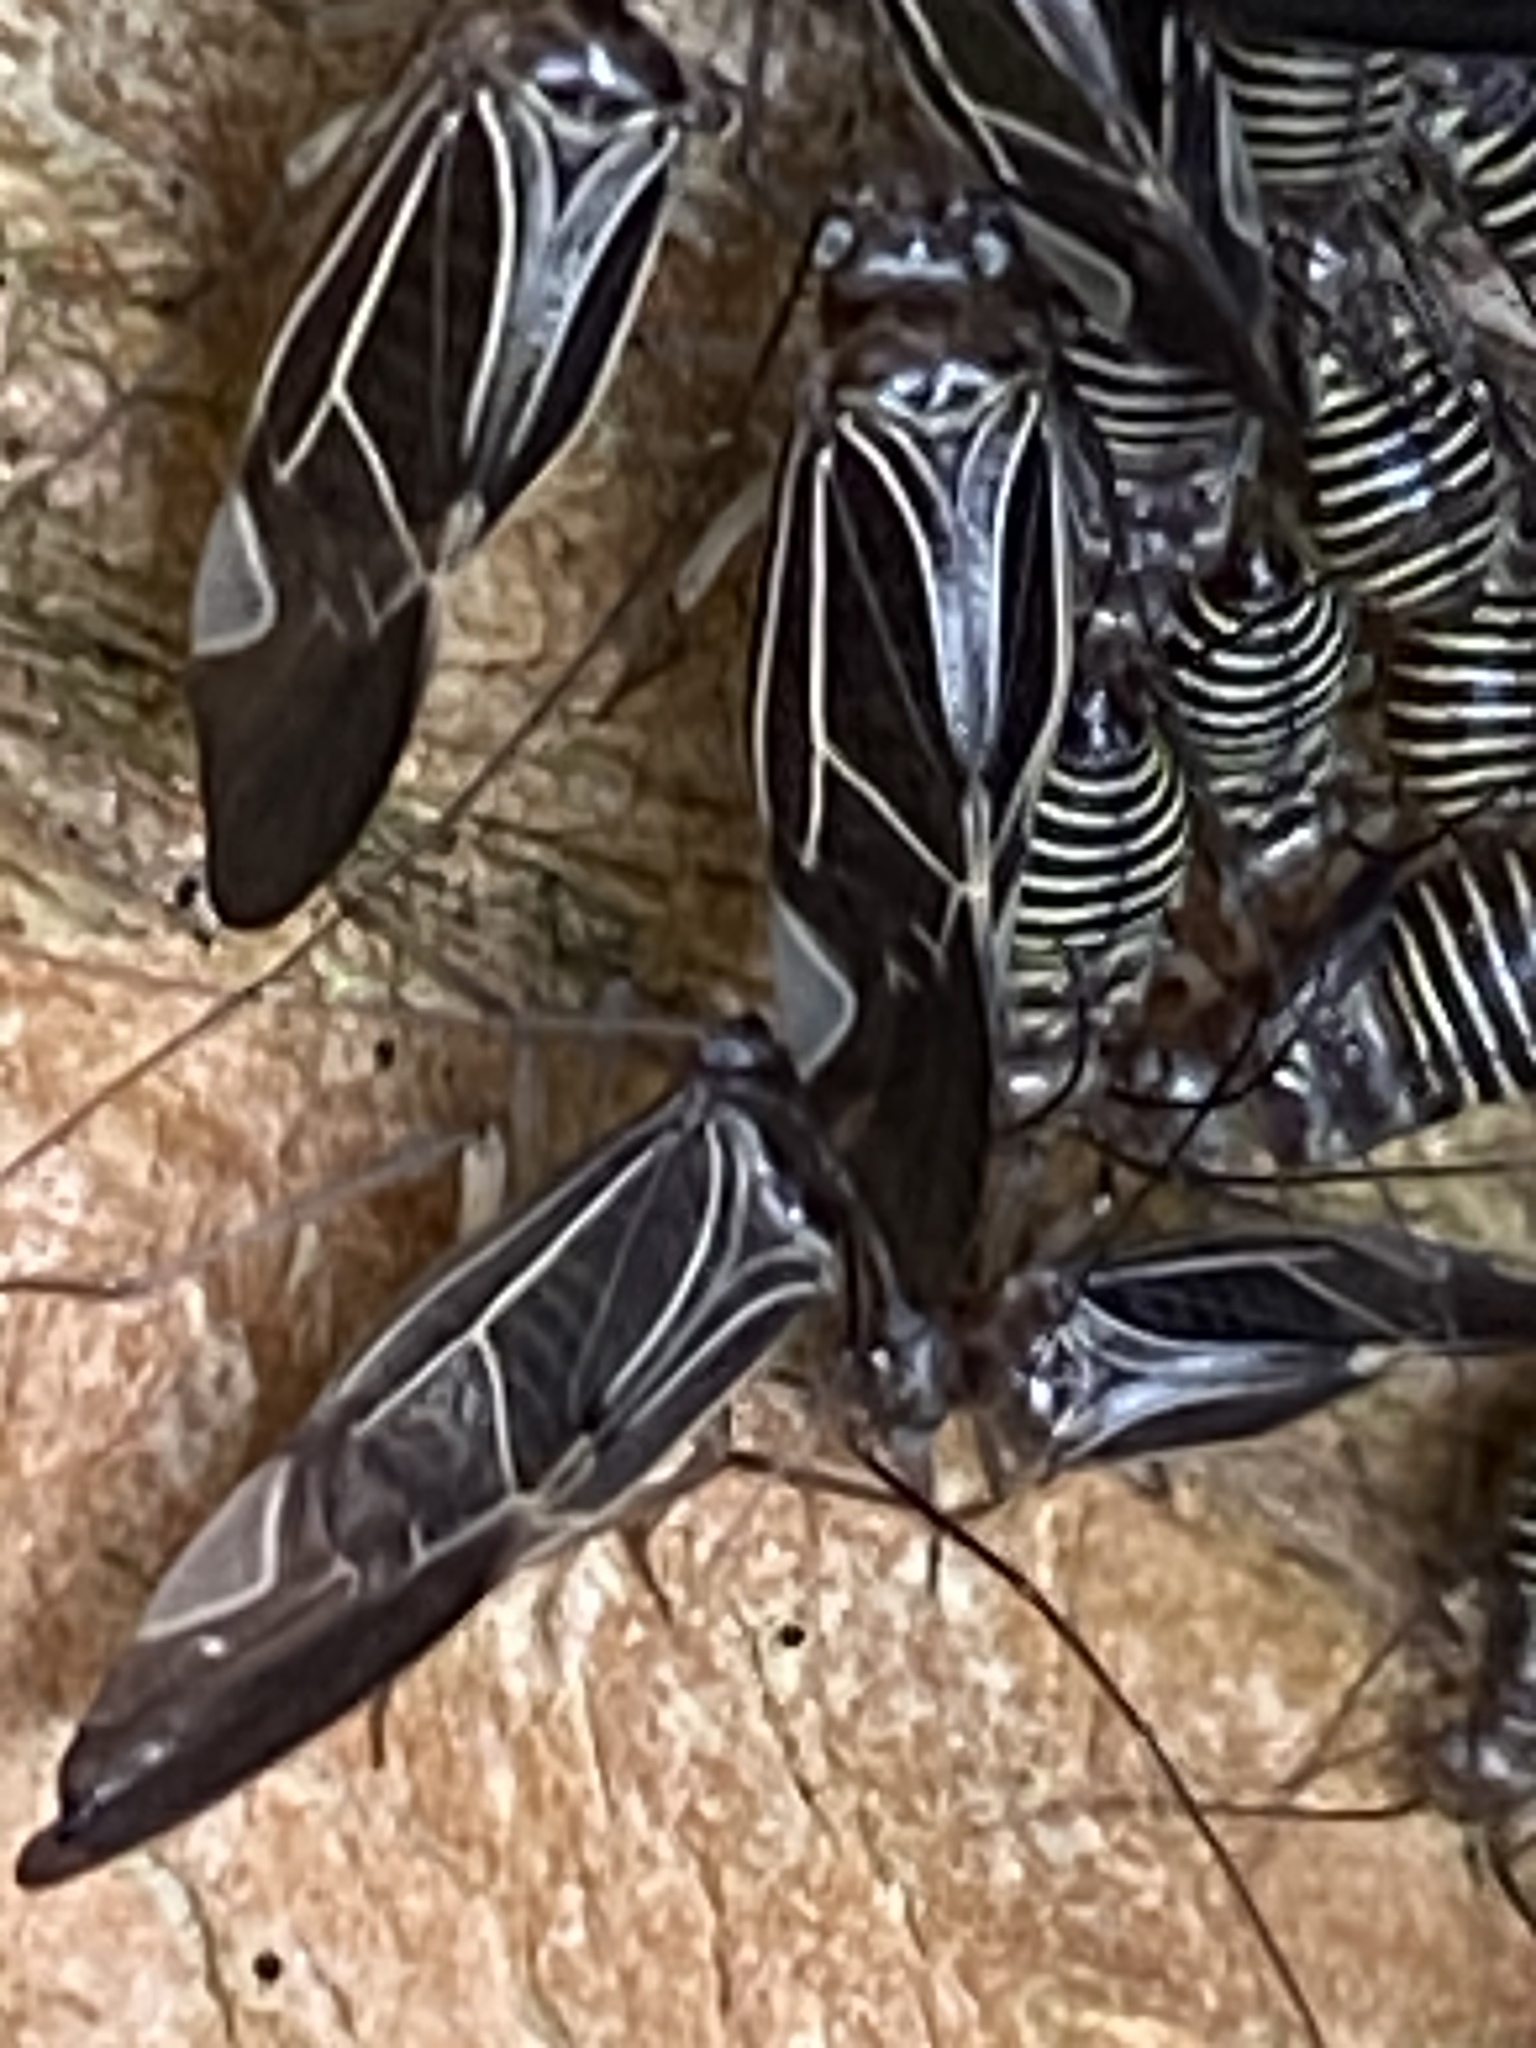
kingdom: Animalia
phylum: Arthropoda
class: Insecta
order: Psocodea
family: Psocidae
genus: Cerastipsocus
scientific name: Cerastipsocus venosus
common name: Tree cattle
